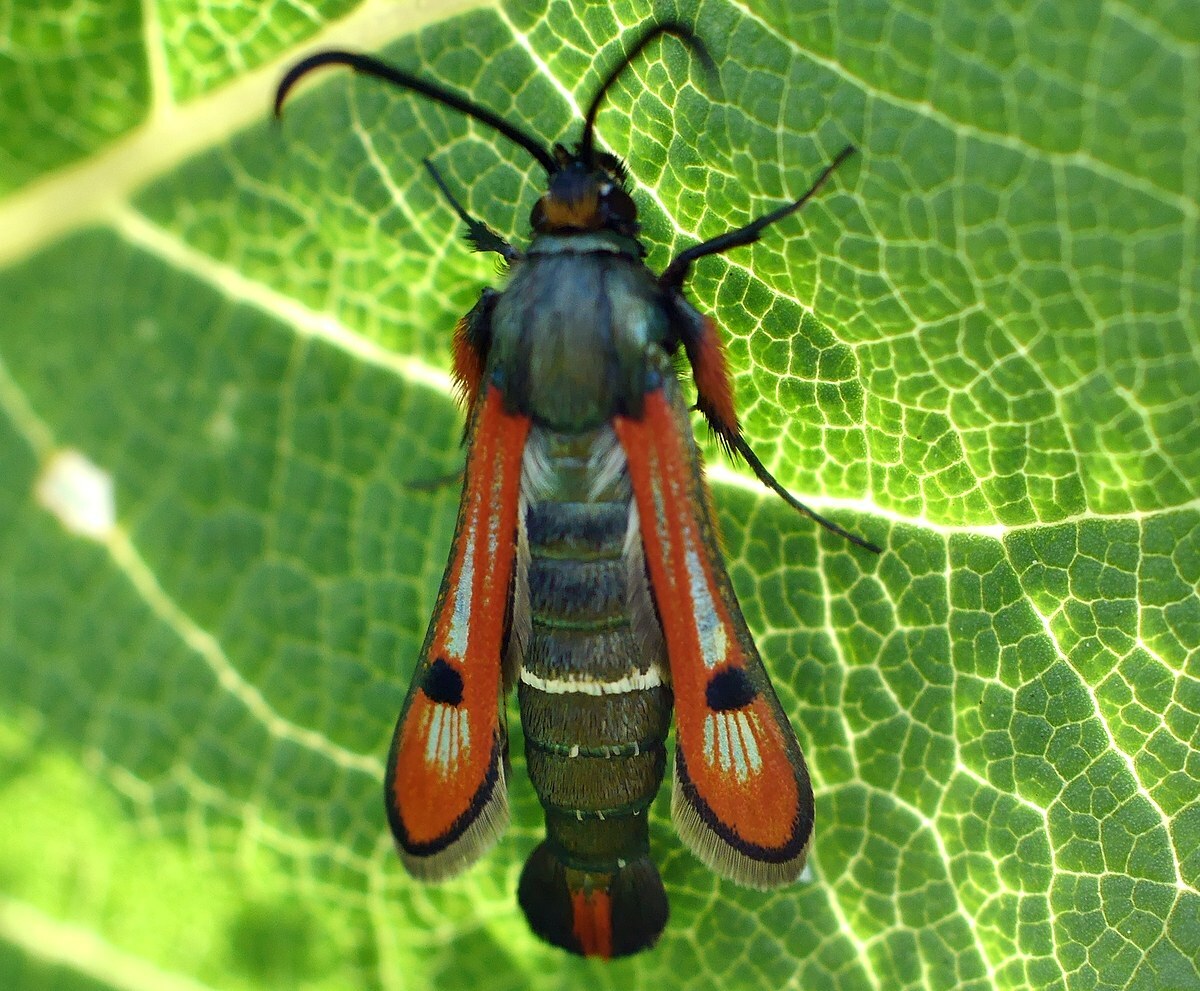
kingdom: Animalia
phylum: Arthropoda
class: Insecta
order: Lepidoptera
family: Sesiidae
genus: Chamaesphecia
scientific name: Chamaesphecia schmidtiiformis
